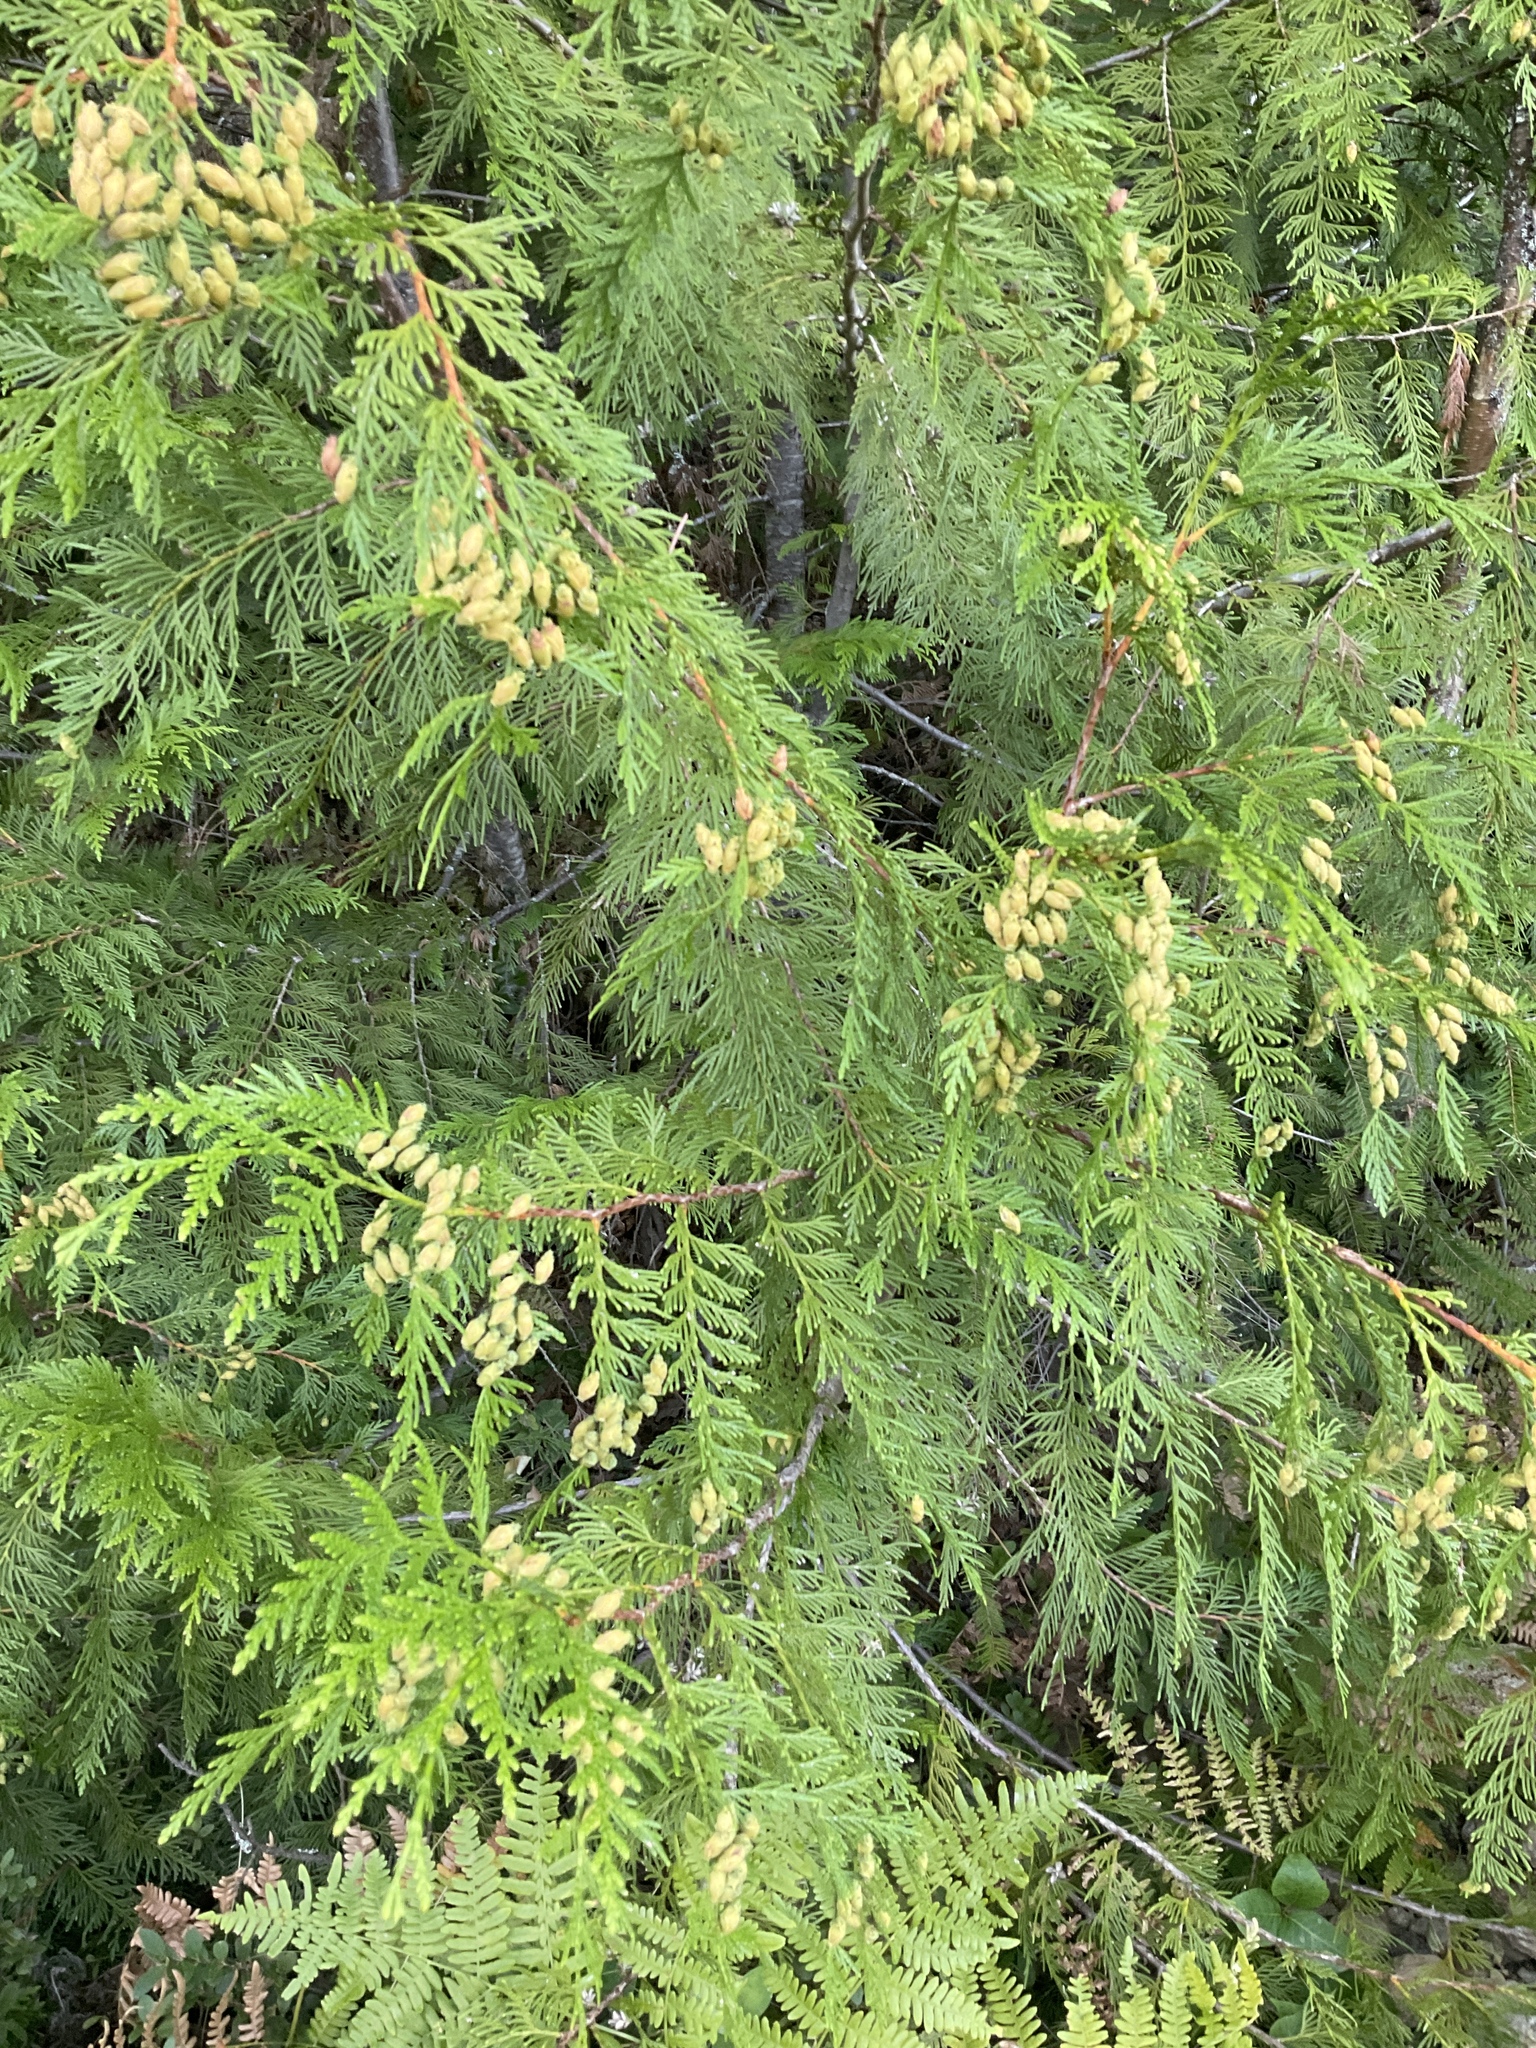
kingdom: Plantae
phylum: Tracheophyta
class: Pinopsida
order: Pinales
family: Cupressaceae
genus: Thuja
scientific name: Thuja plicata
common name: Western red-cedar
